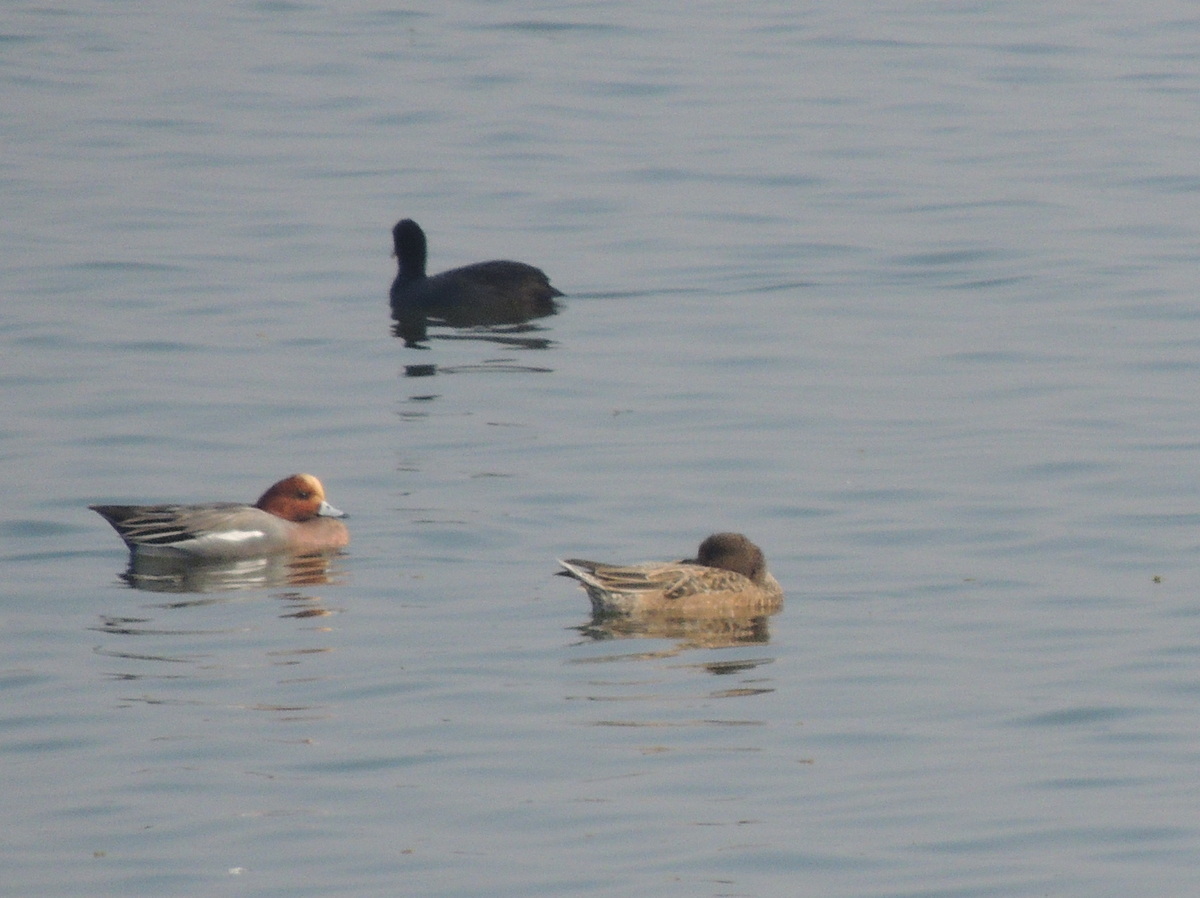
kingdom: Animalia
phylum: Chordata
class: Aves
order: Anseriformes
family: Anatidae
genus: Mareca
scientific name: Mareca penelope
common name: Eurasian wigeon
